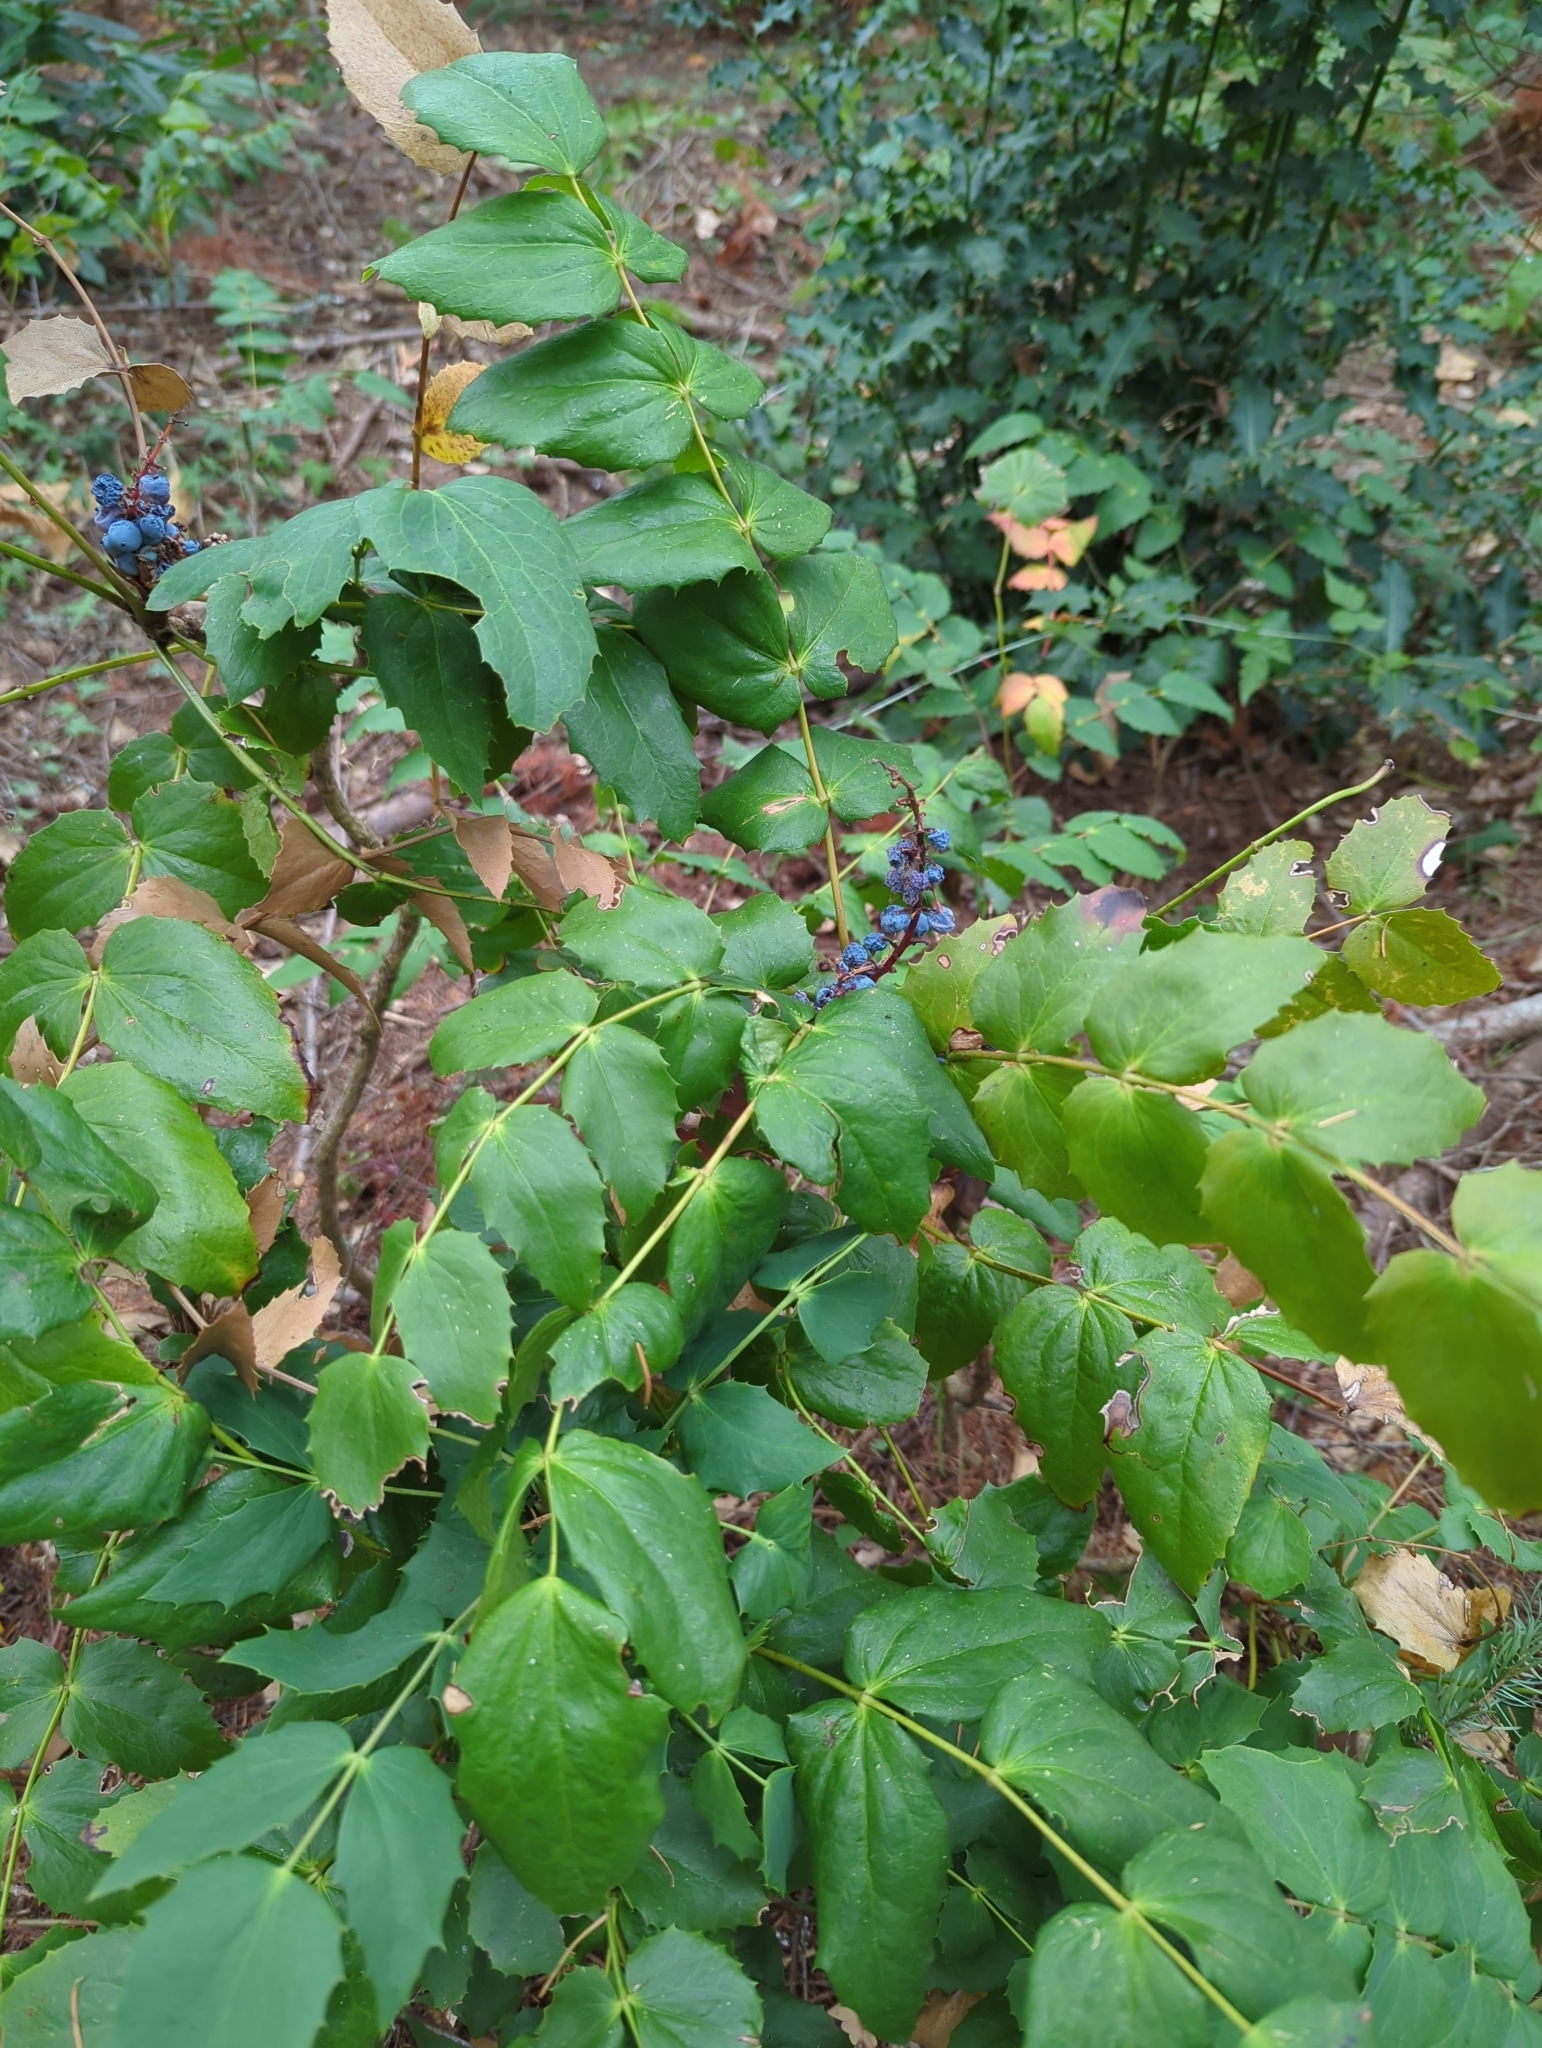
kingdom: Plantae
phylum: Tracheophyta
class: Magnoliopsida
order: Ranunculales
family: Berberidaceae
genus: Mahonia
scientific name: Mahonia nervosa
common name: Cascade oregon-grape
